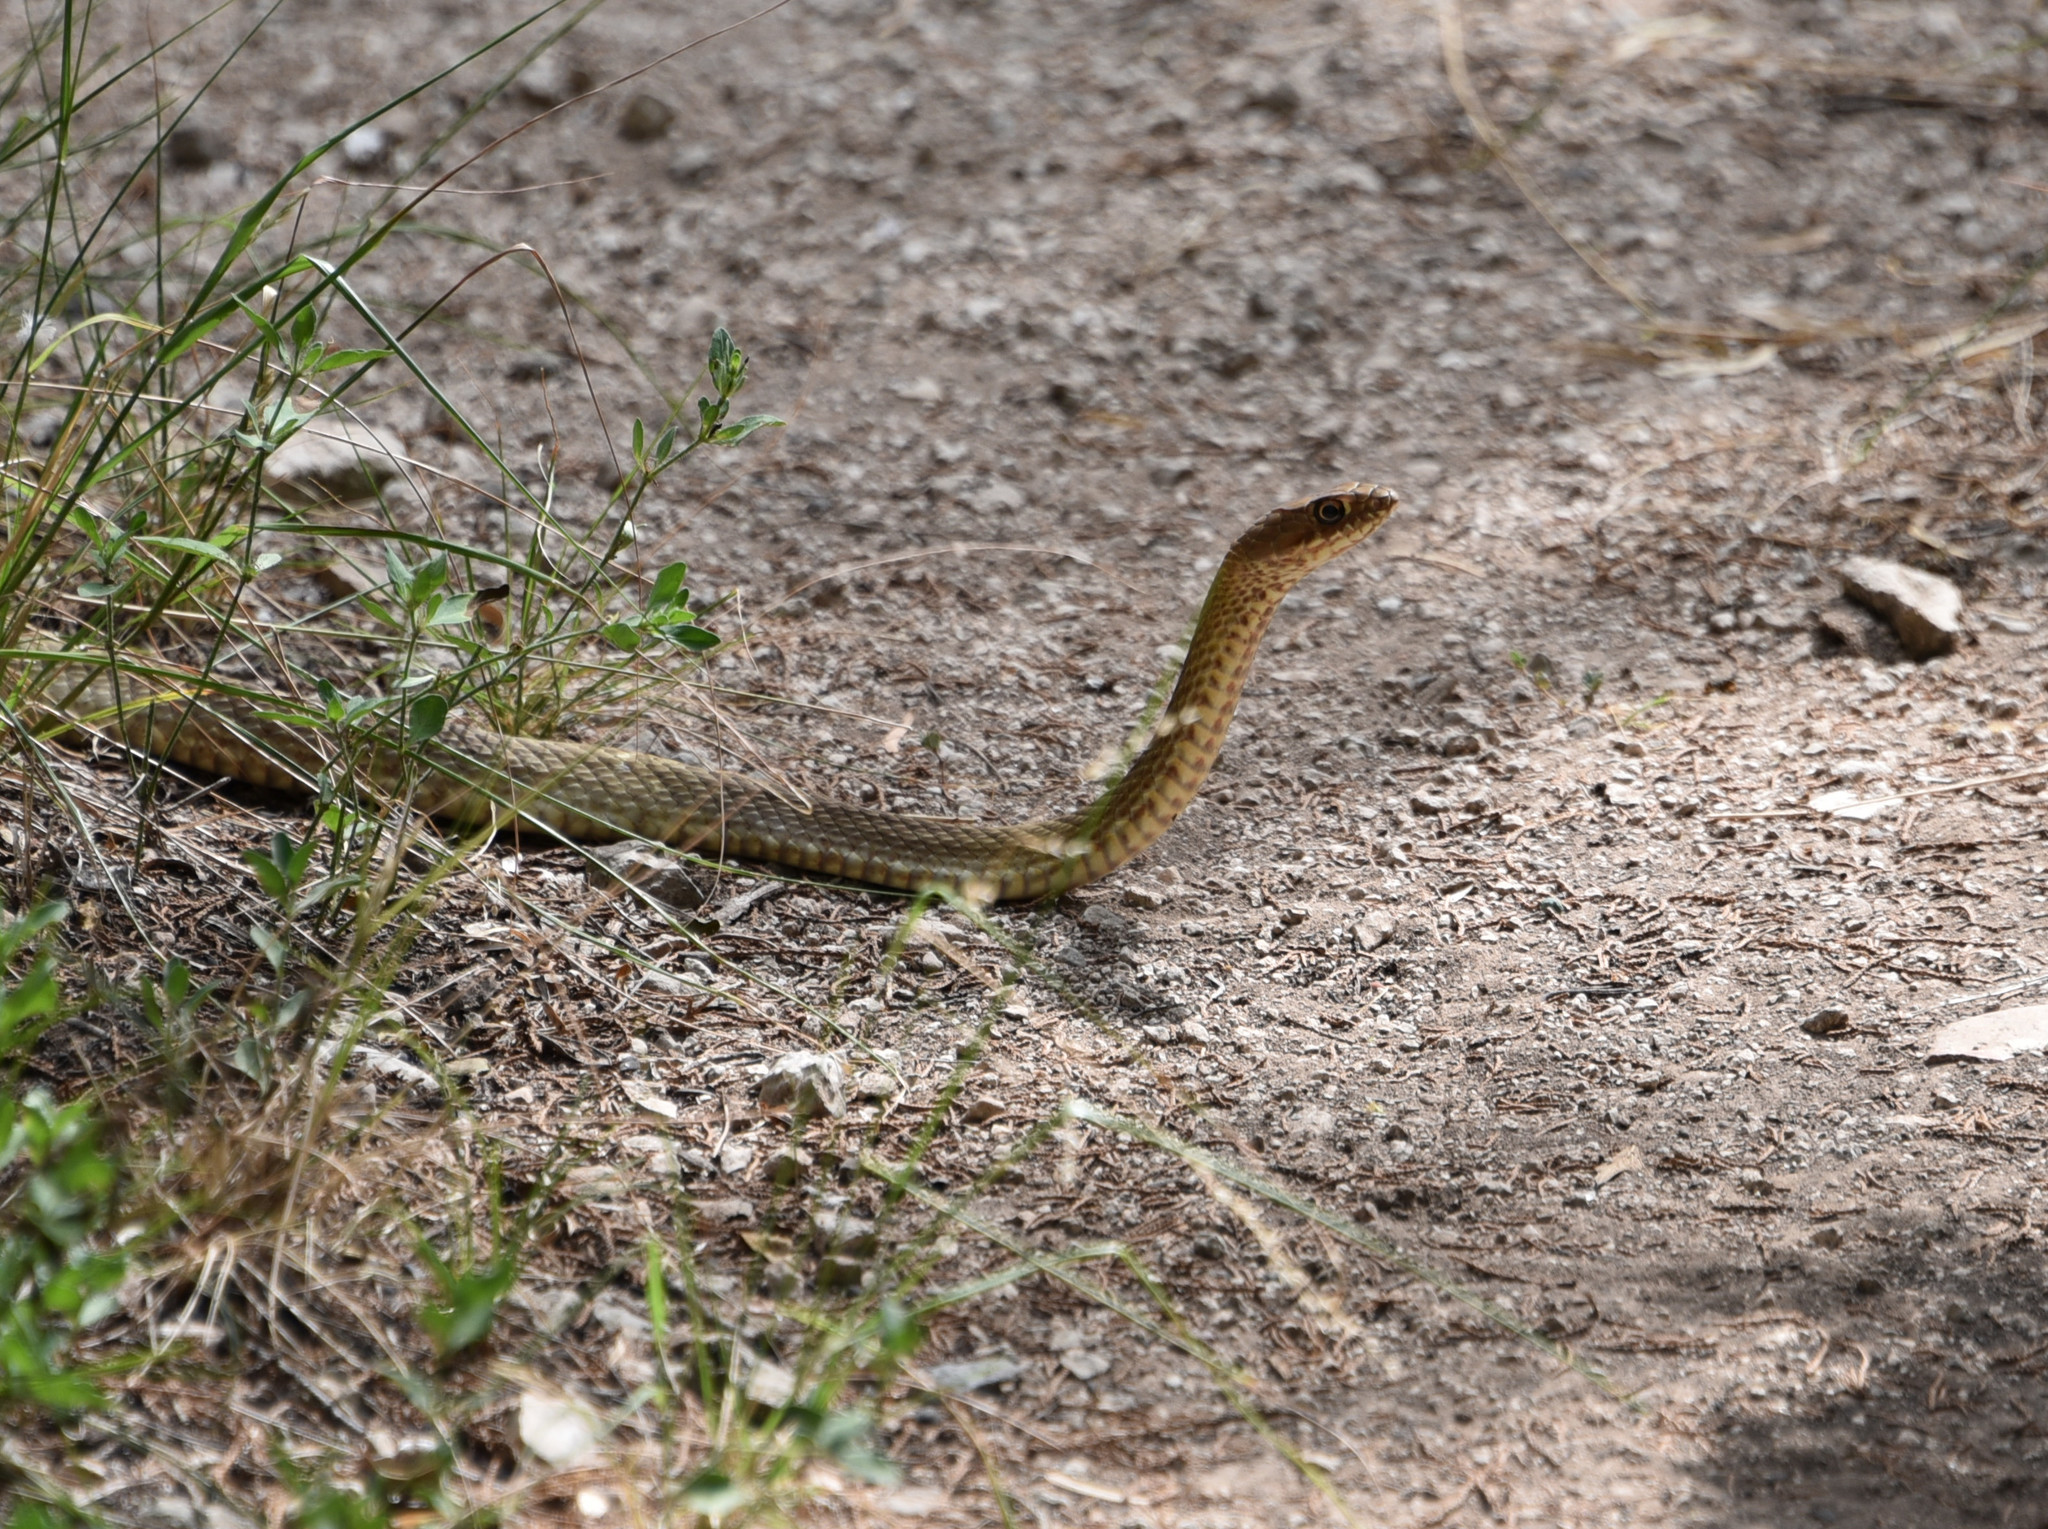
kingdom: Animalia
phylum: Chordata
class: Squamata
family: Colubridae
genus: Masticophis
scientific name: Masticophis flagellum
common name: Coachwhip
